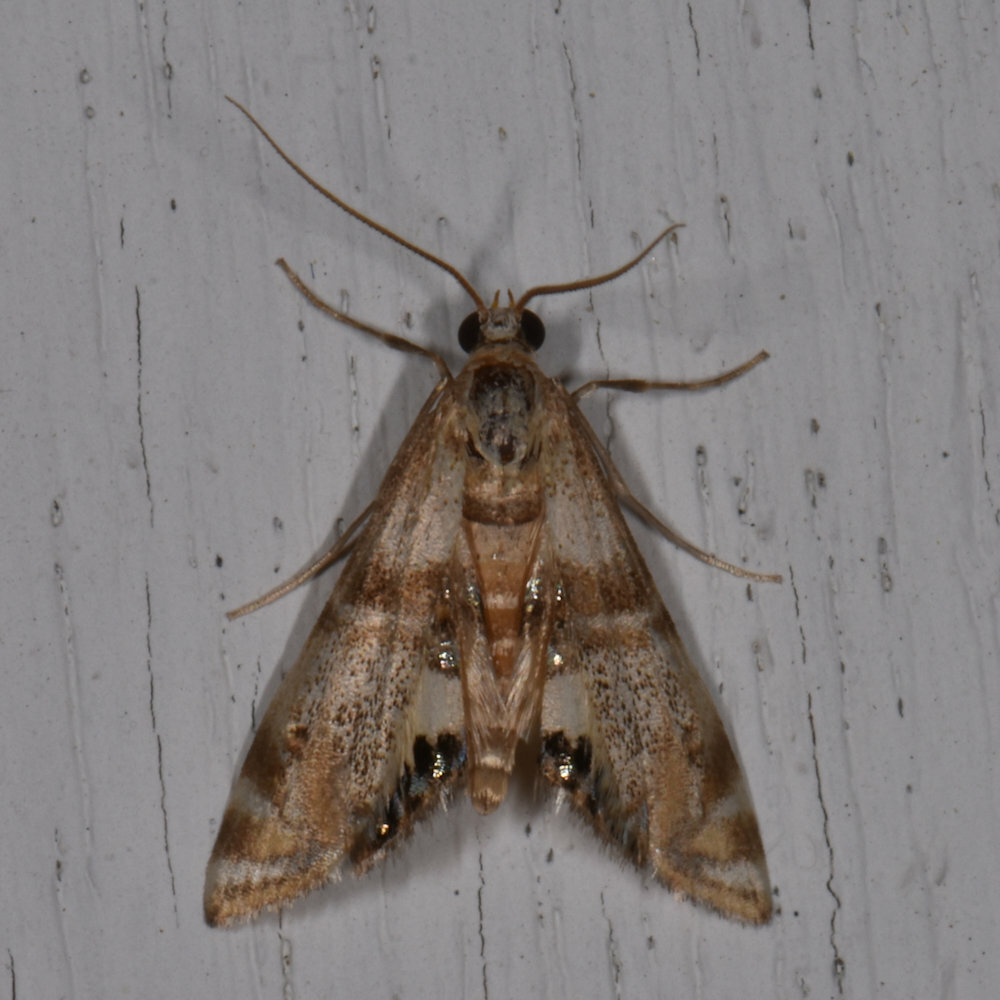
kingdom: Animalia
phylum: Arthropoda
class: Insecta
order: Lepidoptera
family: Crambidae
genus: Petrophila
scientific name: Petrophila bifascialis
